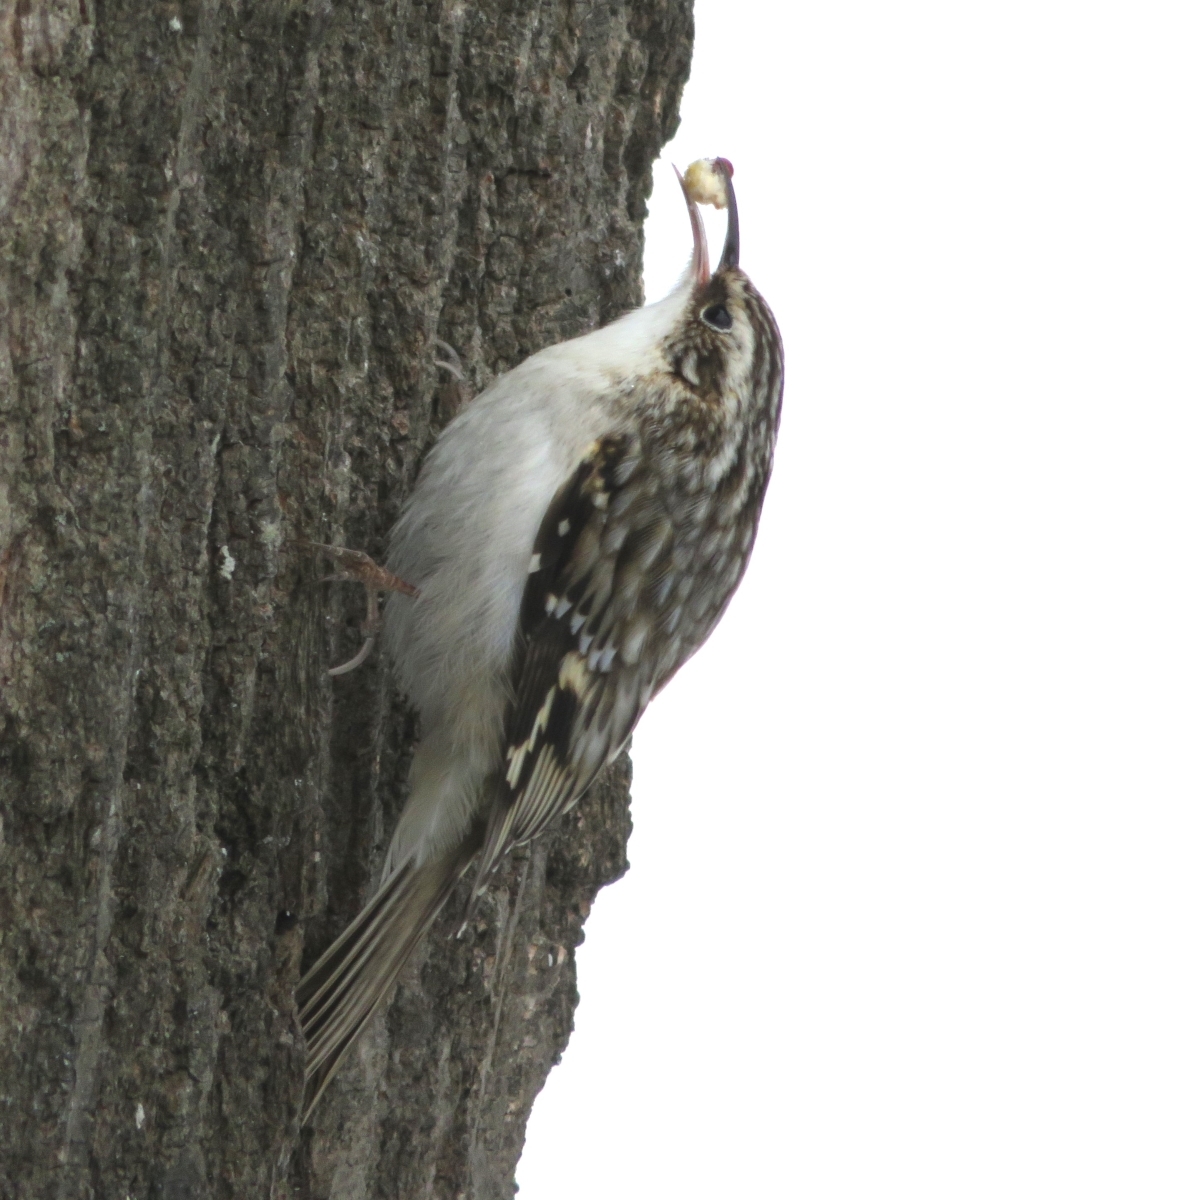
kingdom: Animalia
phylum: Chordata
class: Aves
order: Passeriformes
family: Certhiidae
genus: Certhia
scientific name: Certhia americana
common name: Brown creeper
